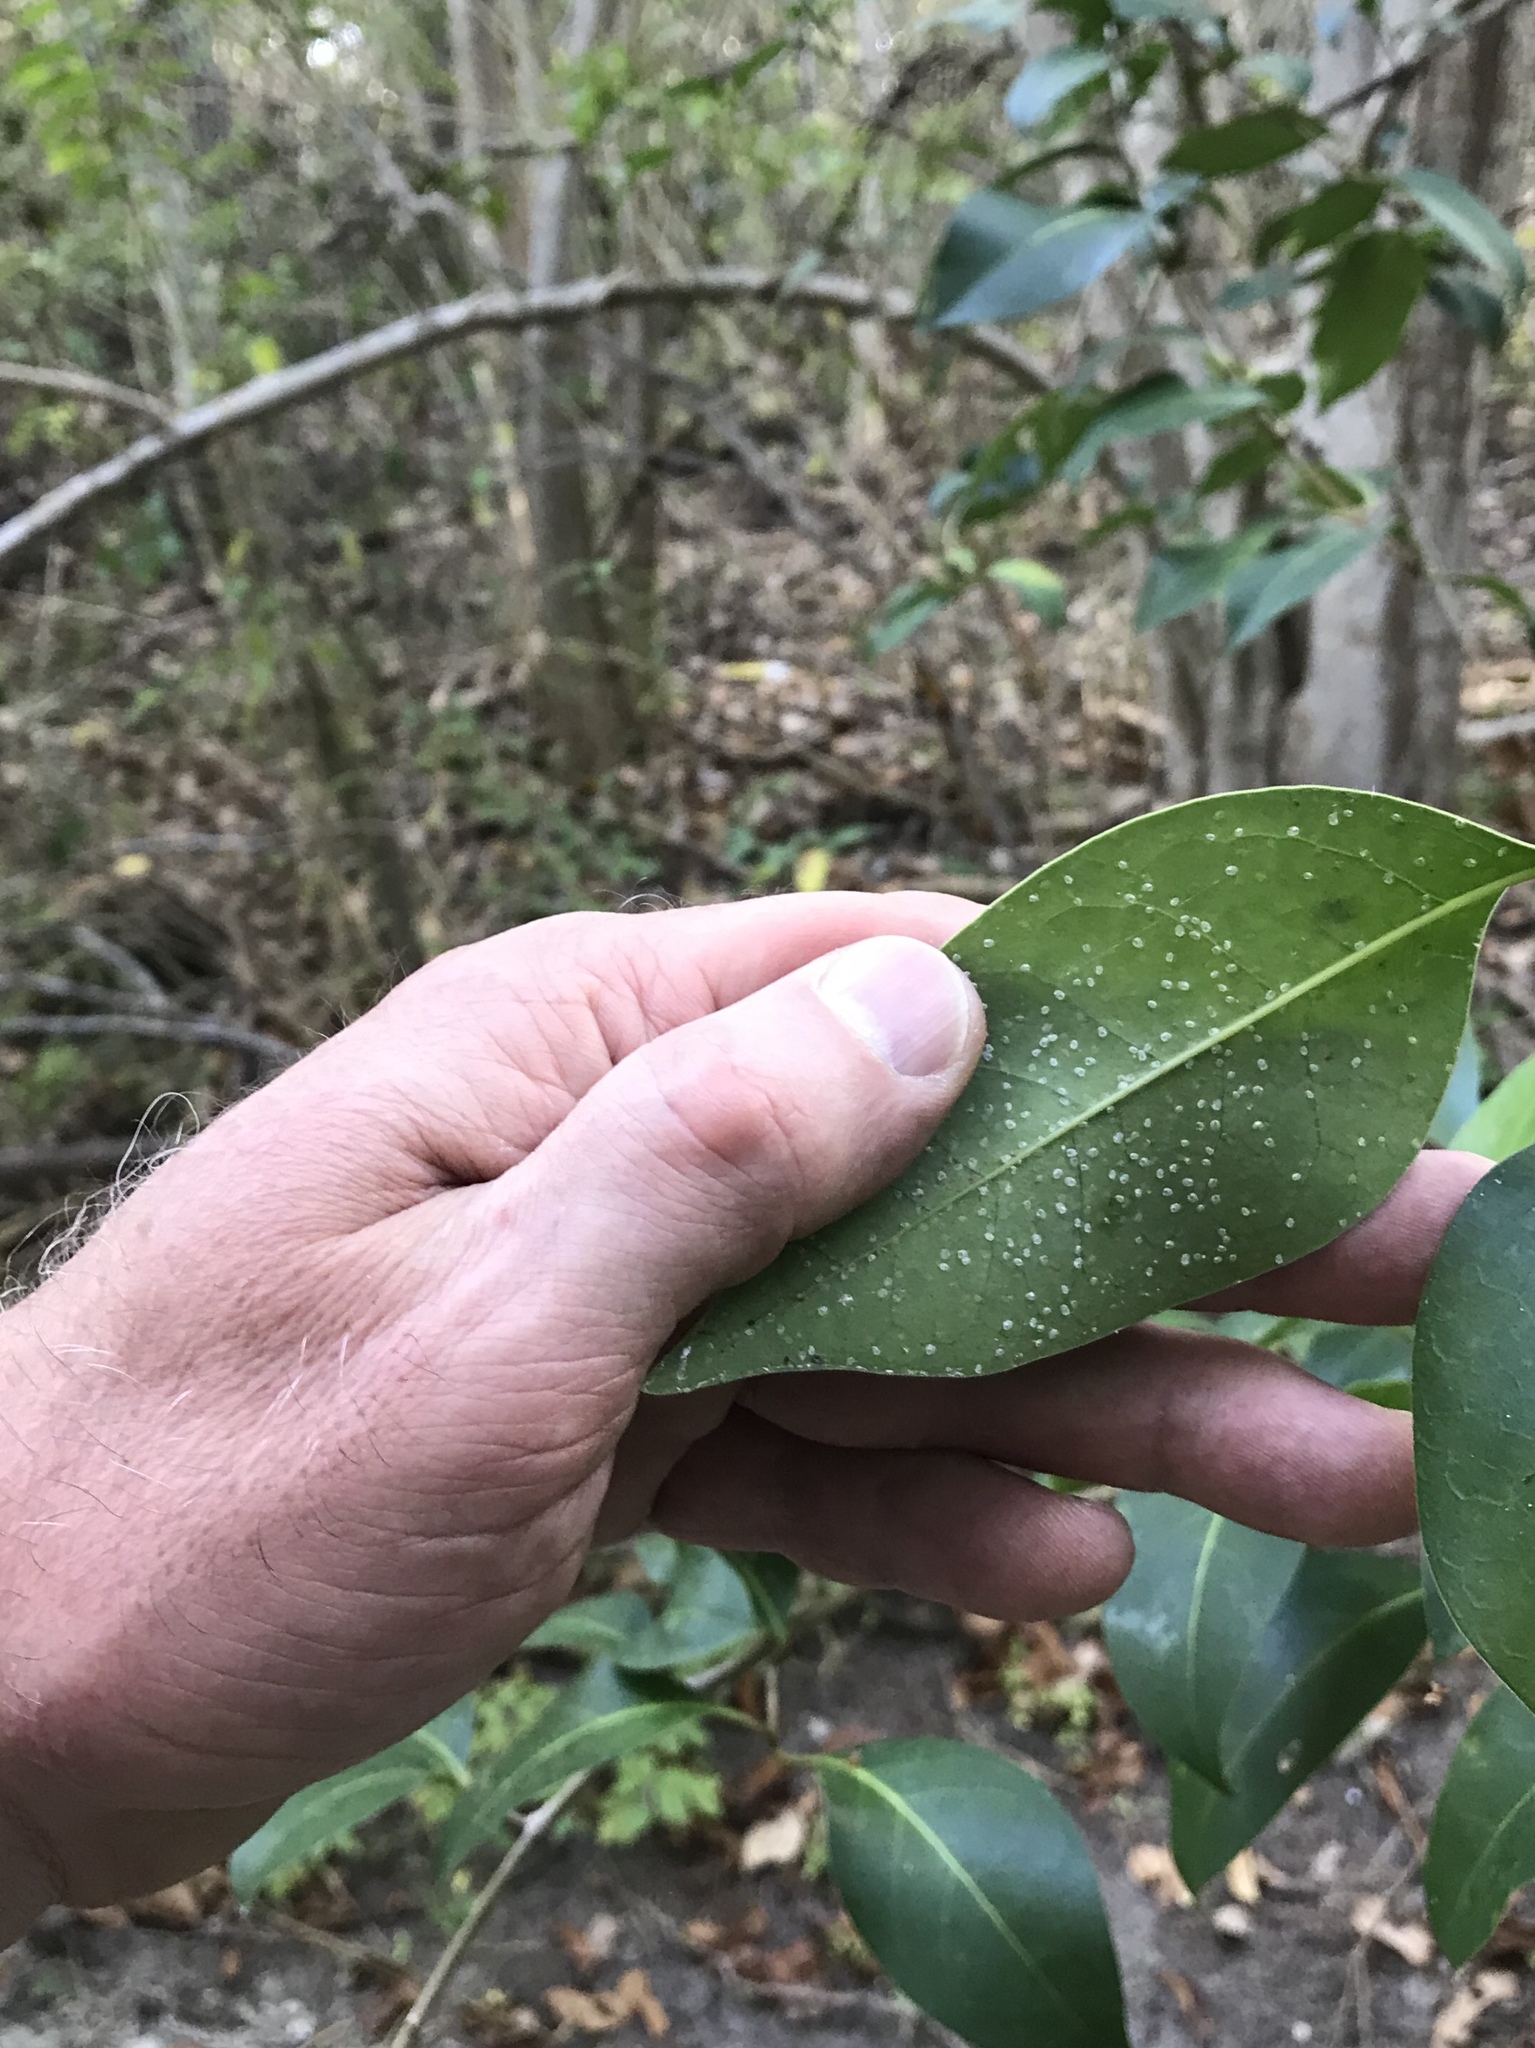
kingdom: Plantae
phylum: Tracheophyta
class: Magnoliopsida
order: Lamiales
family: Oleaceae
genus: Ligustrum
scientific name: Ligustrum lucidum
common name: Glossy privet
